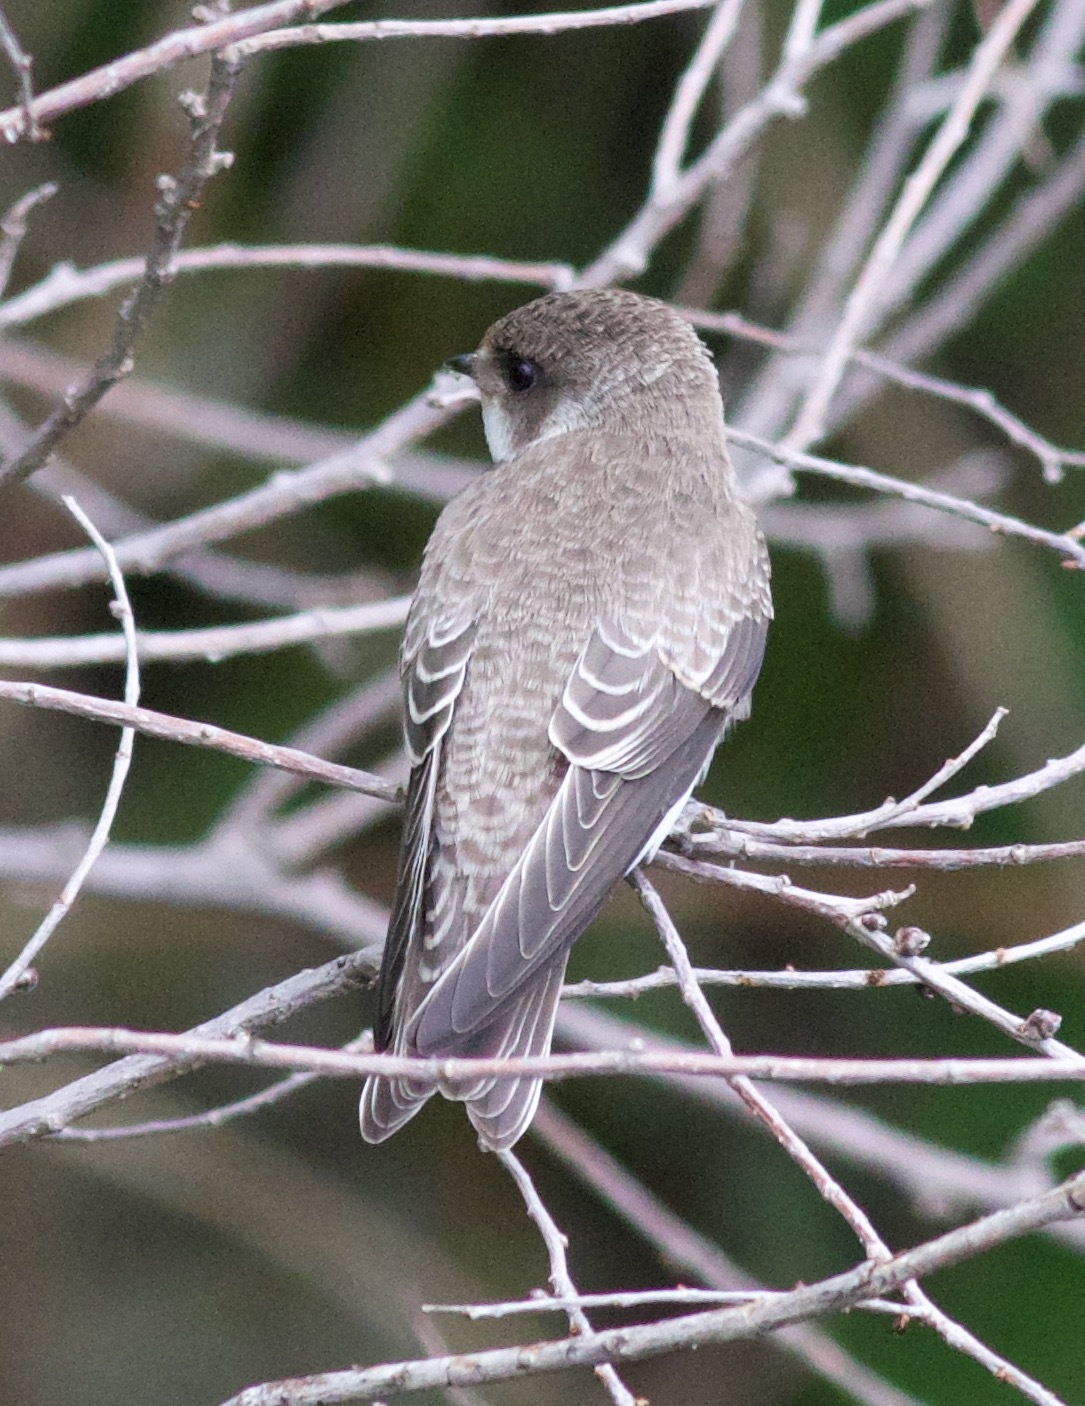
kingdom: Animalia
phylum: Chordata
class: Aves
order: Passeriformes
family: Hirundinidae
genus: Riparia
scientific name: Riparia riparia
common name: Sand martin
